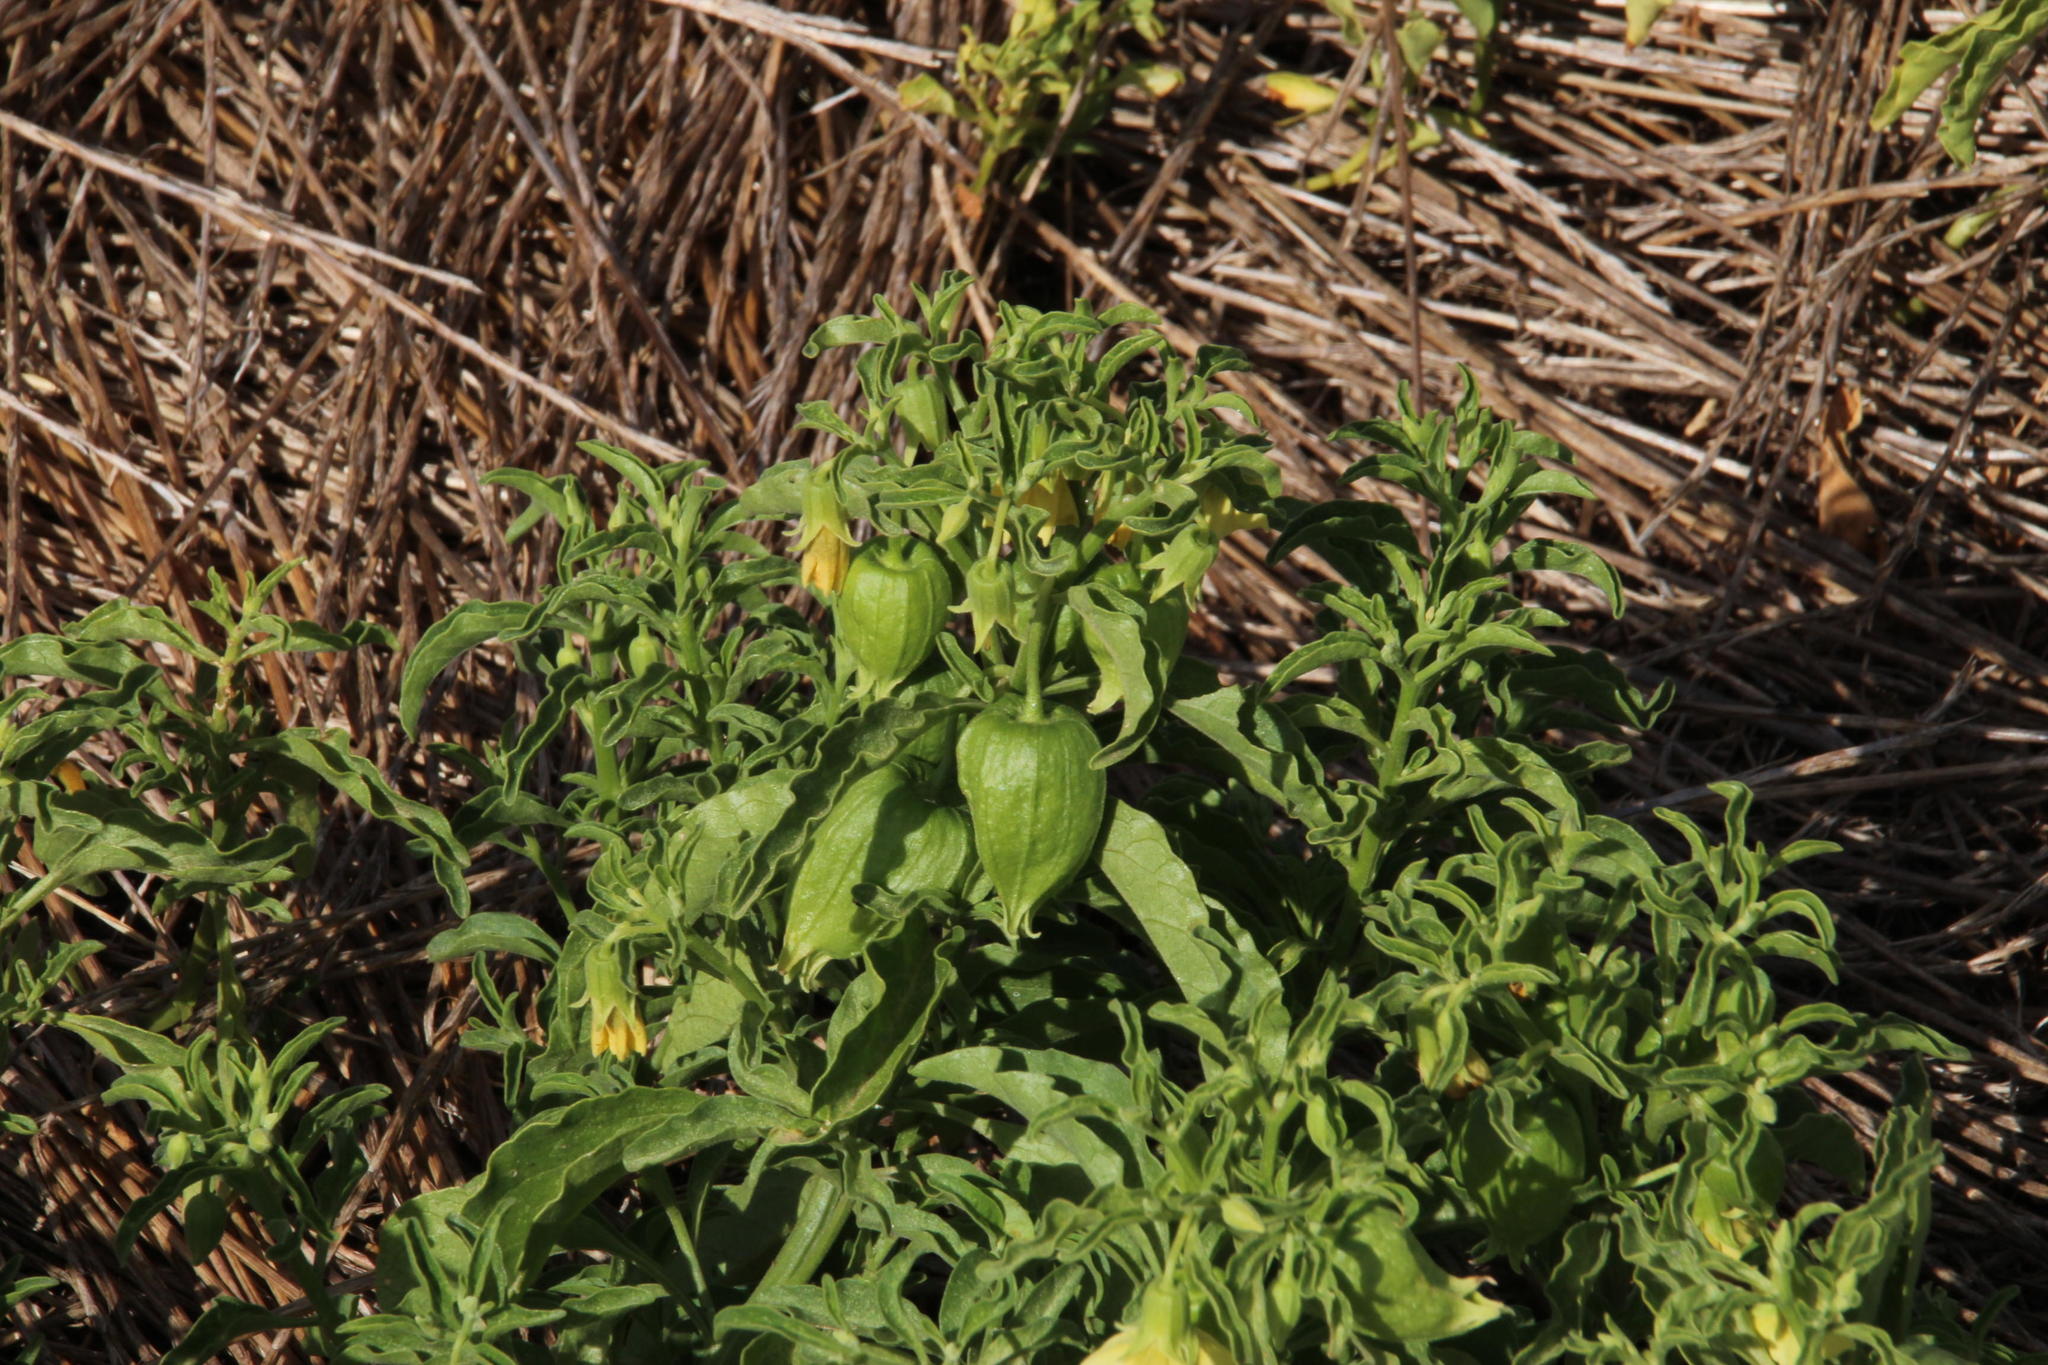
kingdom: Plantae
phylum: Tracheophyta
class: Magnoliopsida
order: Solanales
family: Solanaceae
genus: Physalis
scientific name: Physalis viscosa
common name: Stellate ground-cherry
